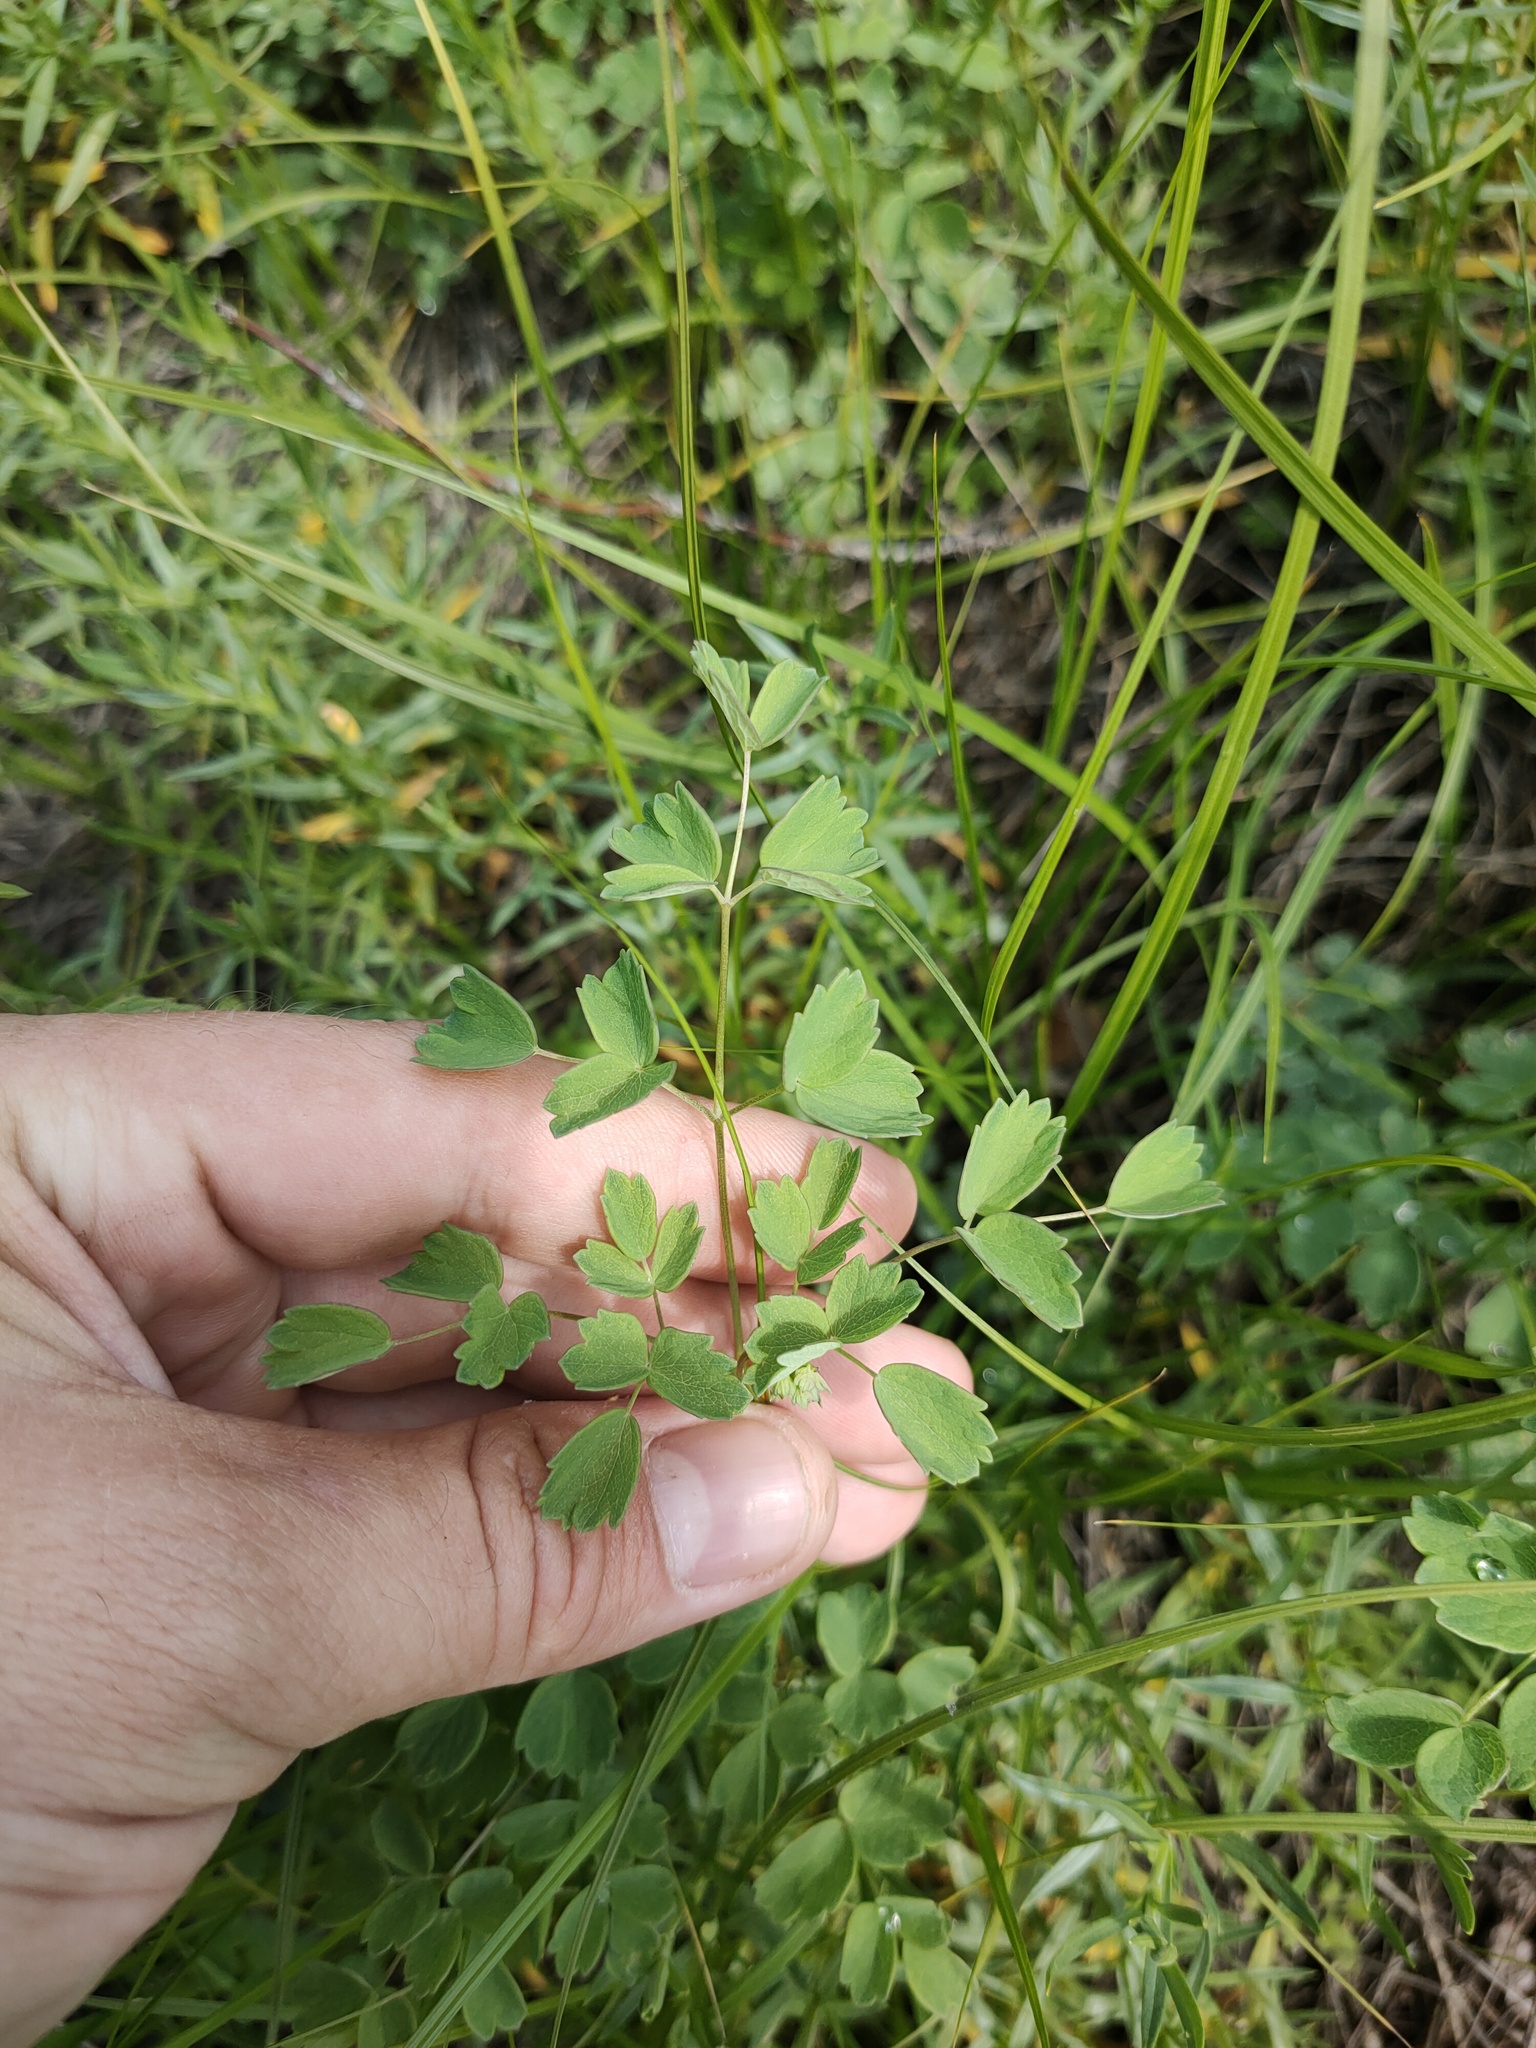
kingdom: Plantae
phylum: Tracheophyta
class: Magnoliopsida
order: Ranunculales
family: Ranunculaceae
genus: Thalictrum
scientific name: Thalictrum minus
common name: Lesser meadow-rue
